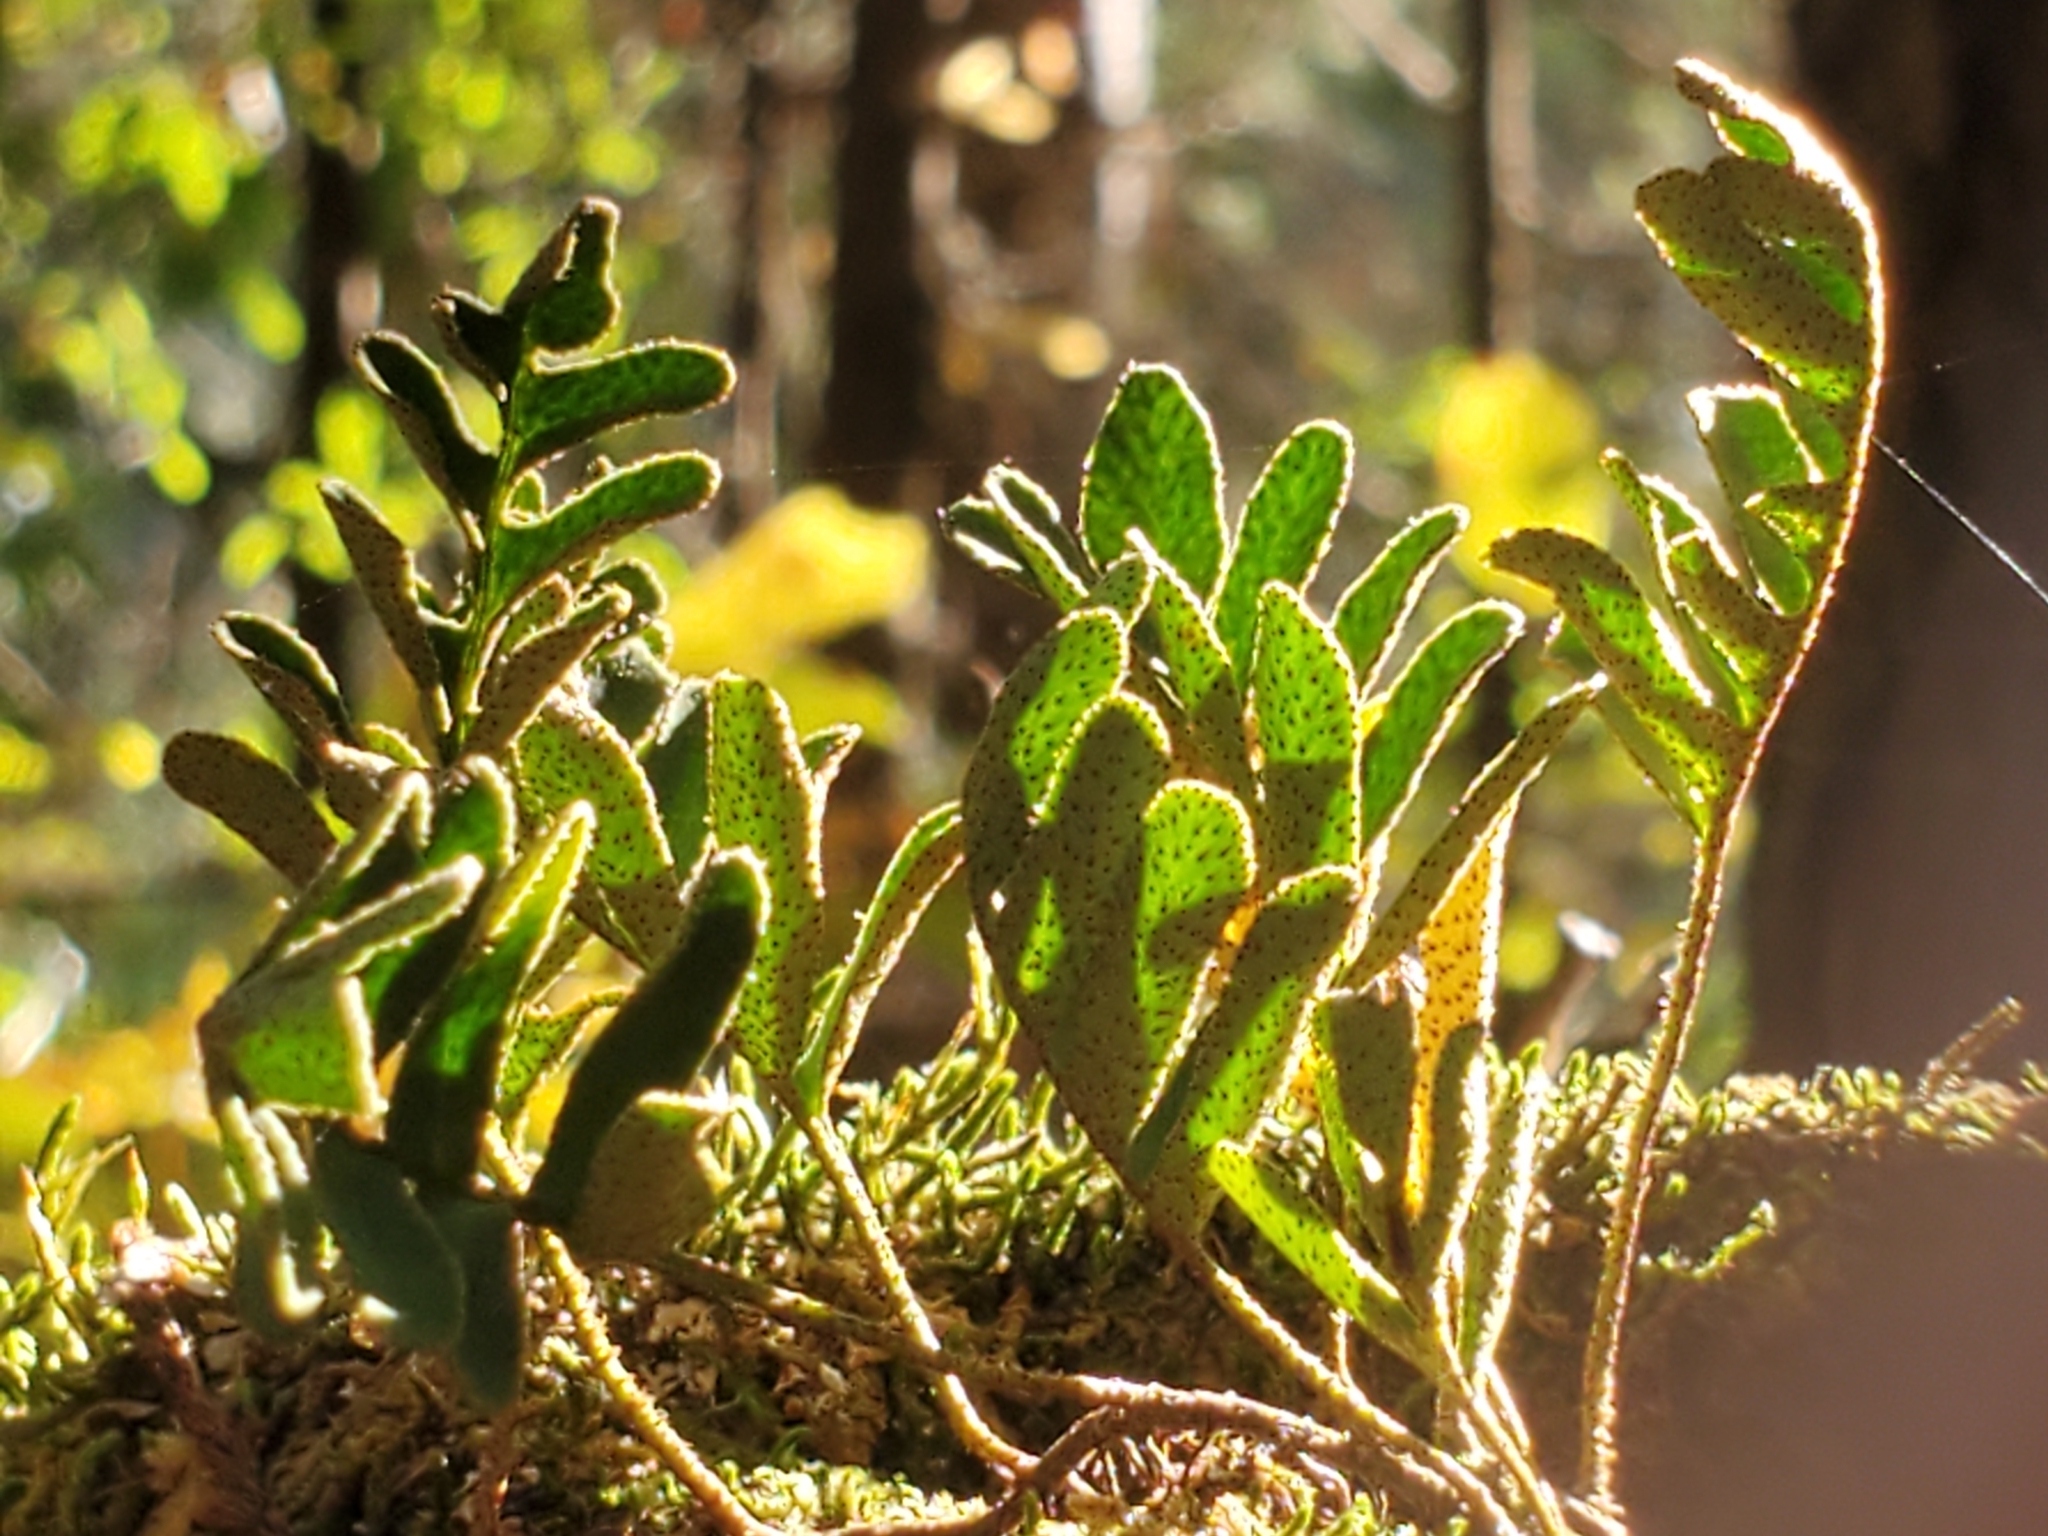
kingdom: Plantae
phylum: Tracheophyta
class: Polypodiopsida
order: Polypodiales
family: Polypodiaceae
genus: Pleopeltis
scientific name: Pleopeltis michauxiana
